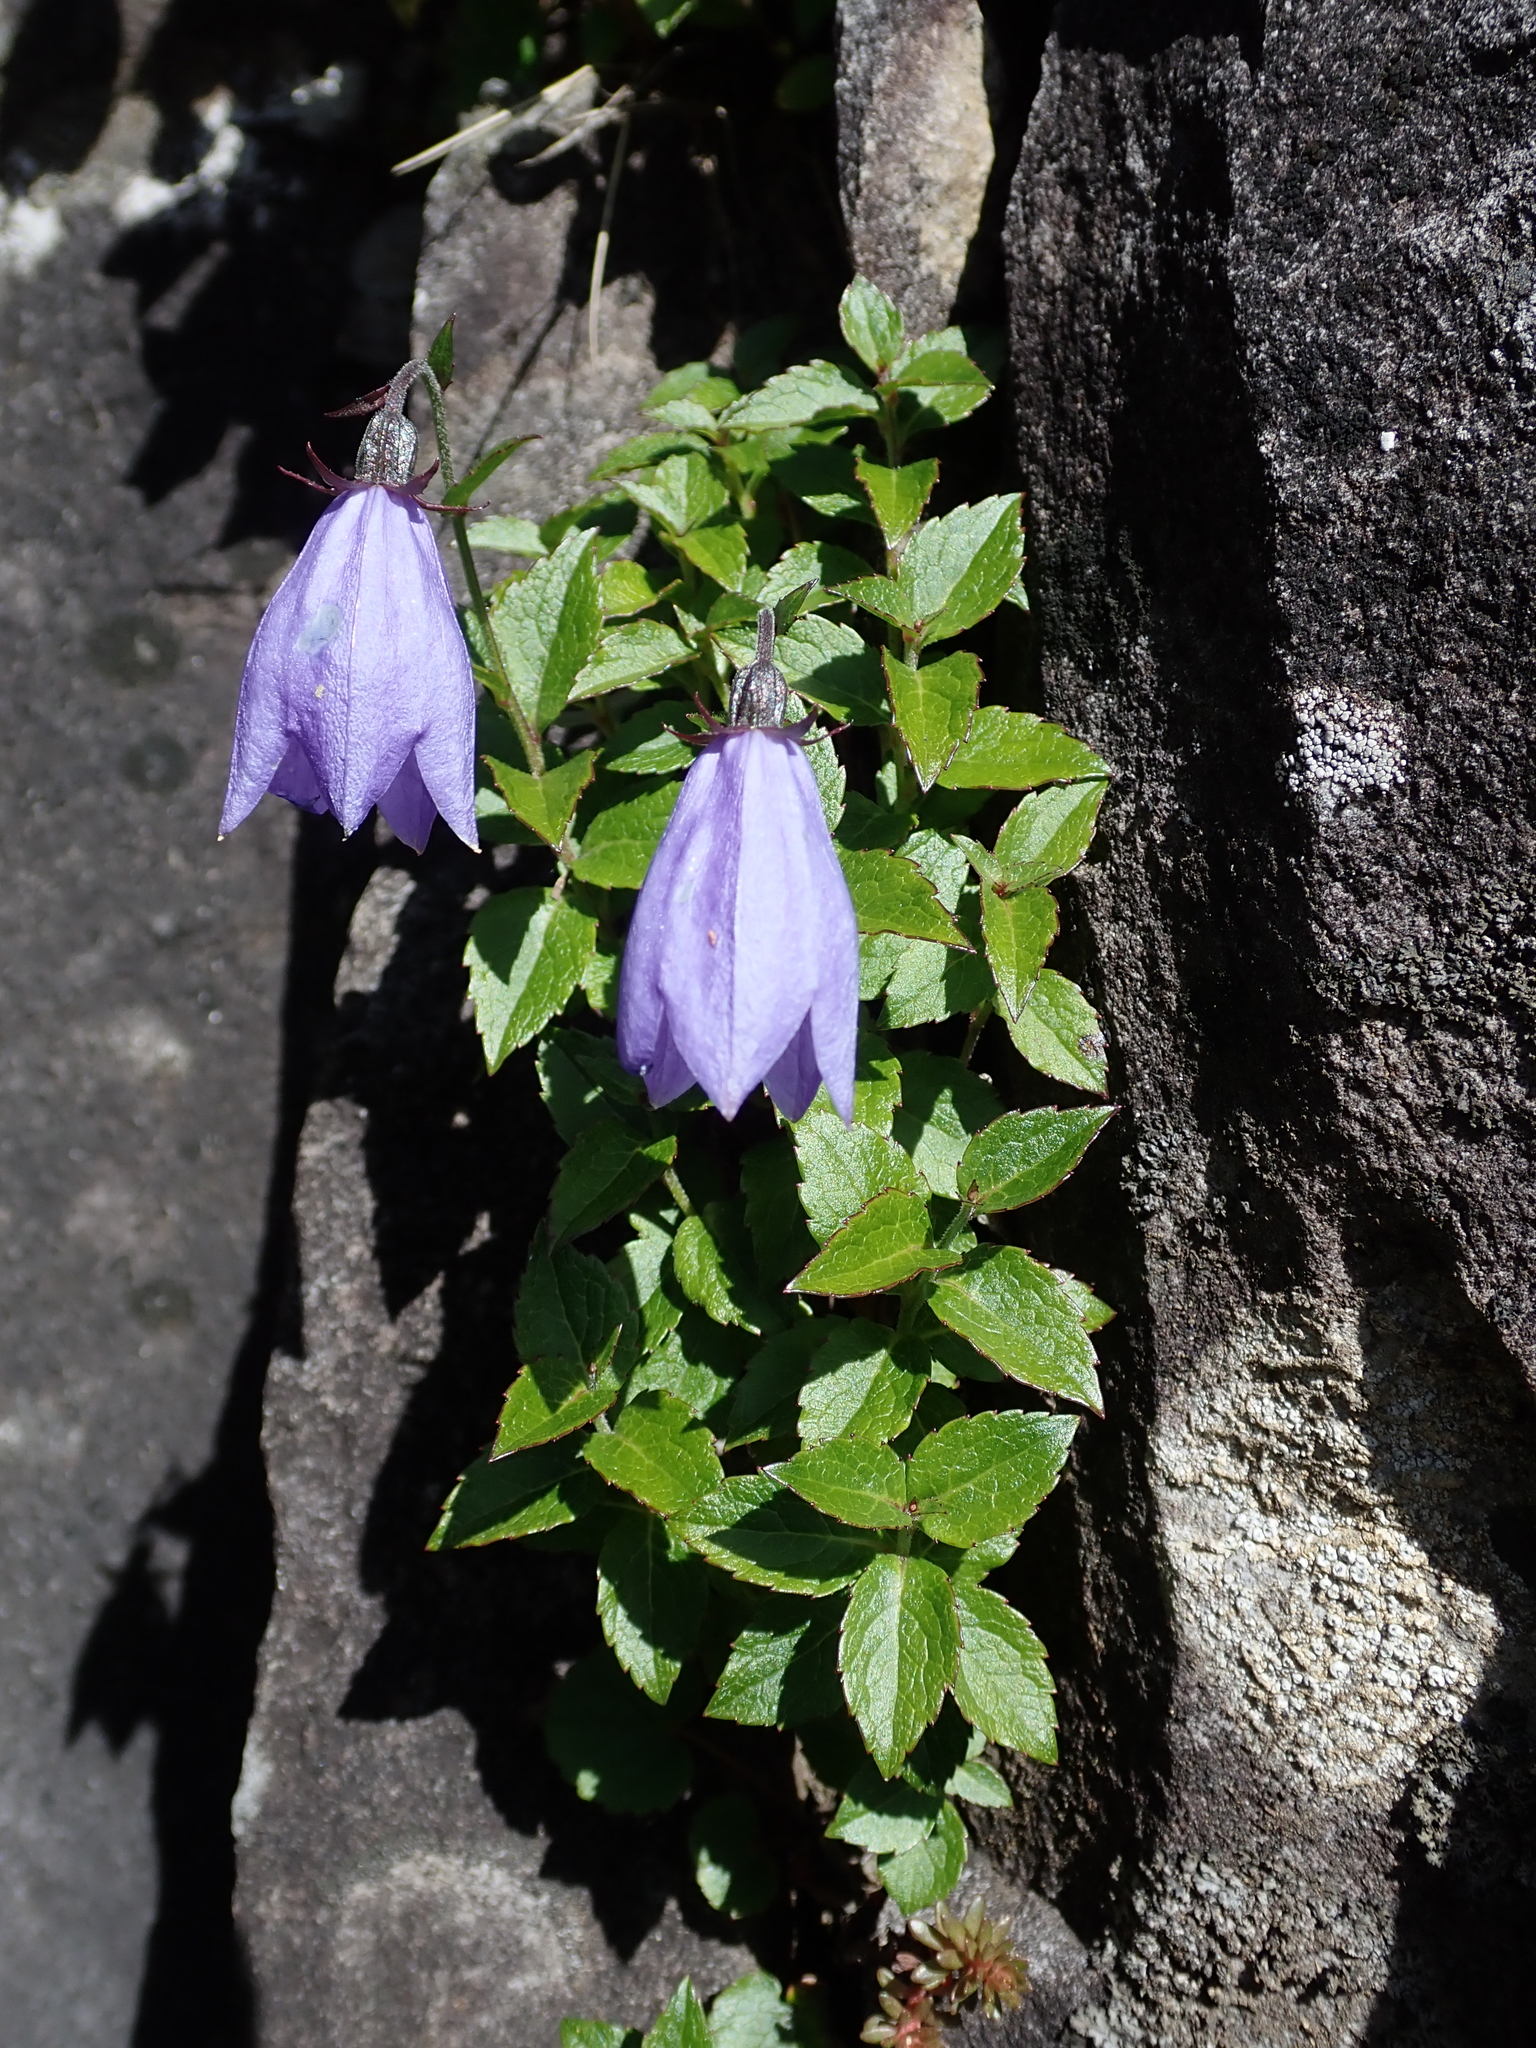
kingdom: Plantae
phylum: Tracheophyta
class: Magnoliopsida
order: Asterales
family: Campanulaceae
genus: Adenophora
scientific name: Adenophora morrisonensis
